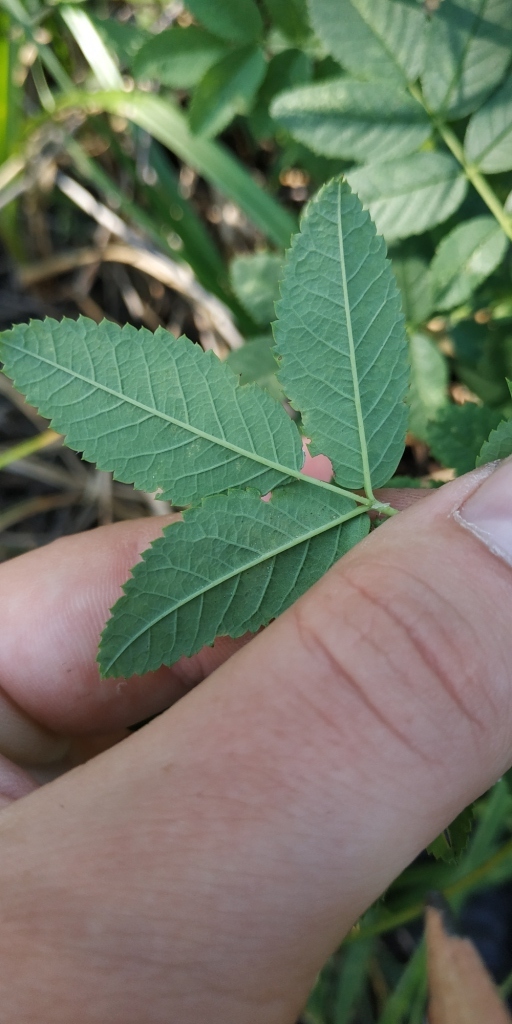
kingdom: Plantae
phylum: Tracheophyta
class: Magnoliopsida
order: Rosales
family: Rosaceae
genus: Rosa
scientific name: Rosa majalis
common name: Cinnamon rose
